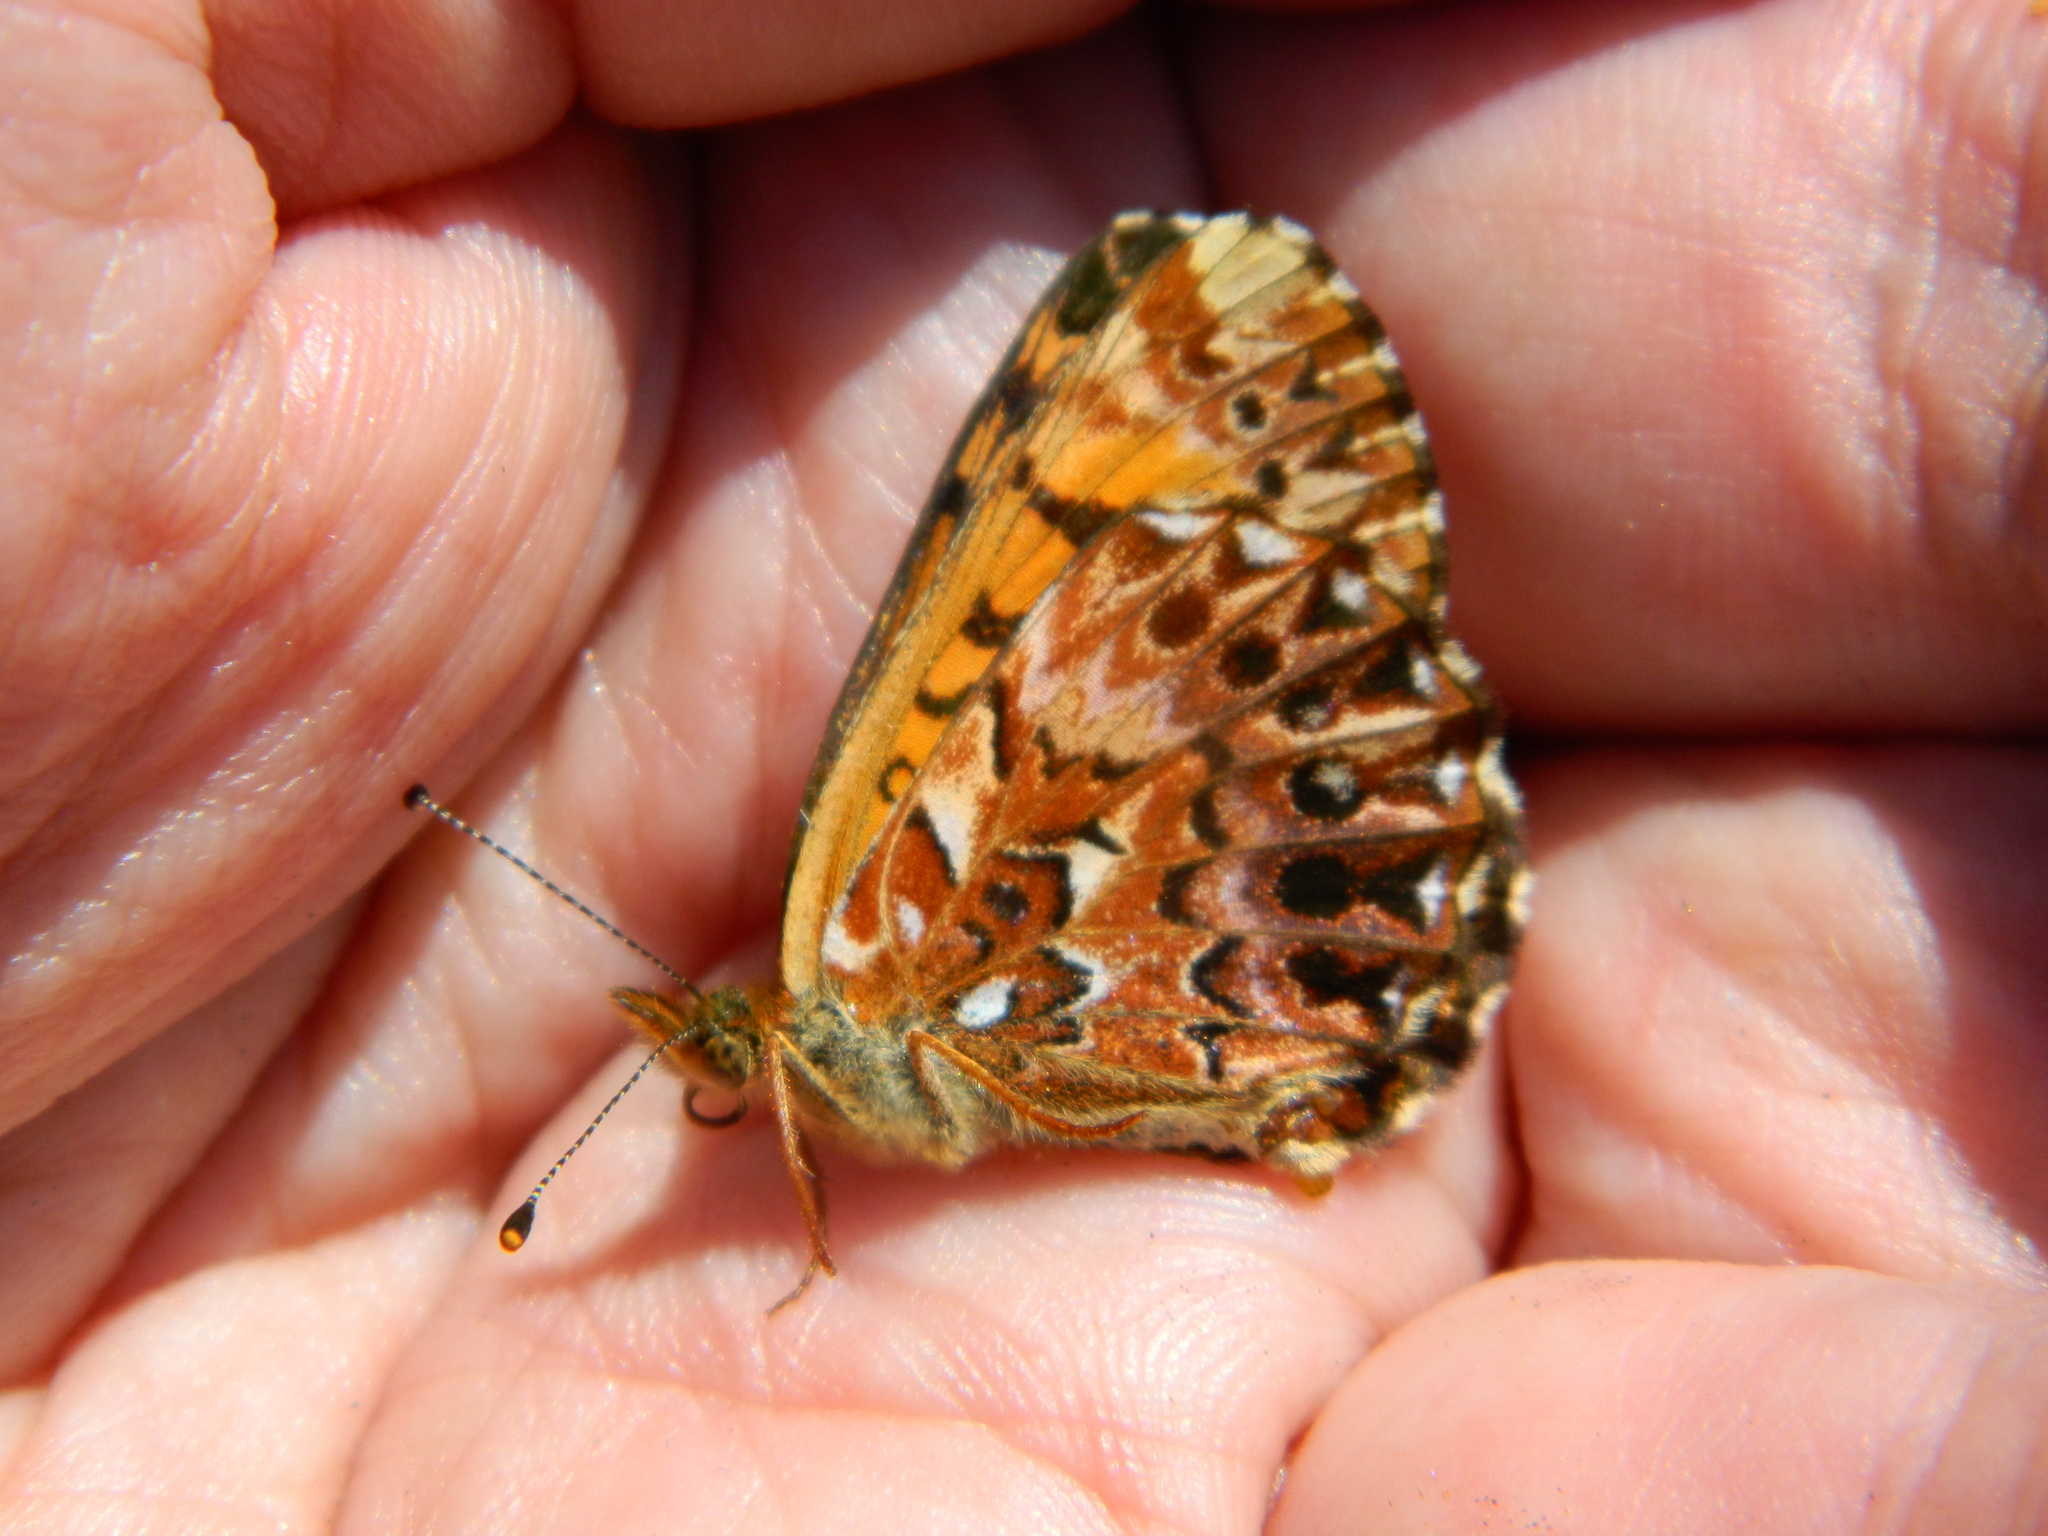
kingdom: Animalia
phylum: Arthropoda
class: Insecta
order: Lepidoptera
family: Nymphalidae
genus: Clossiana
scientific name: Clossiana chariclea
